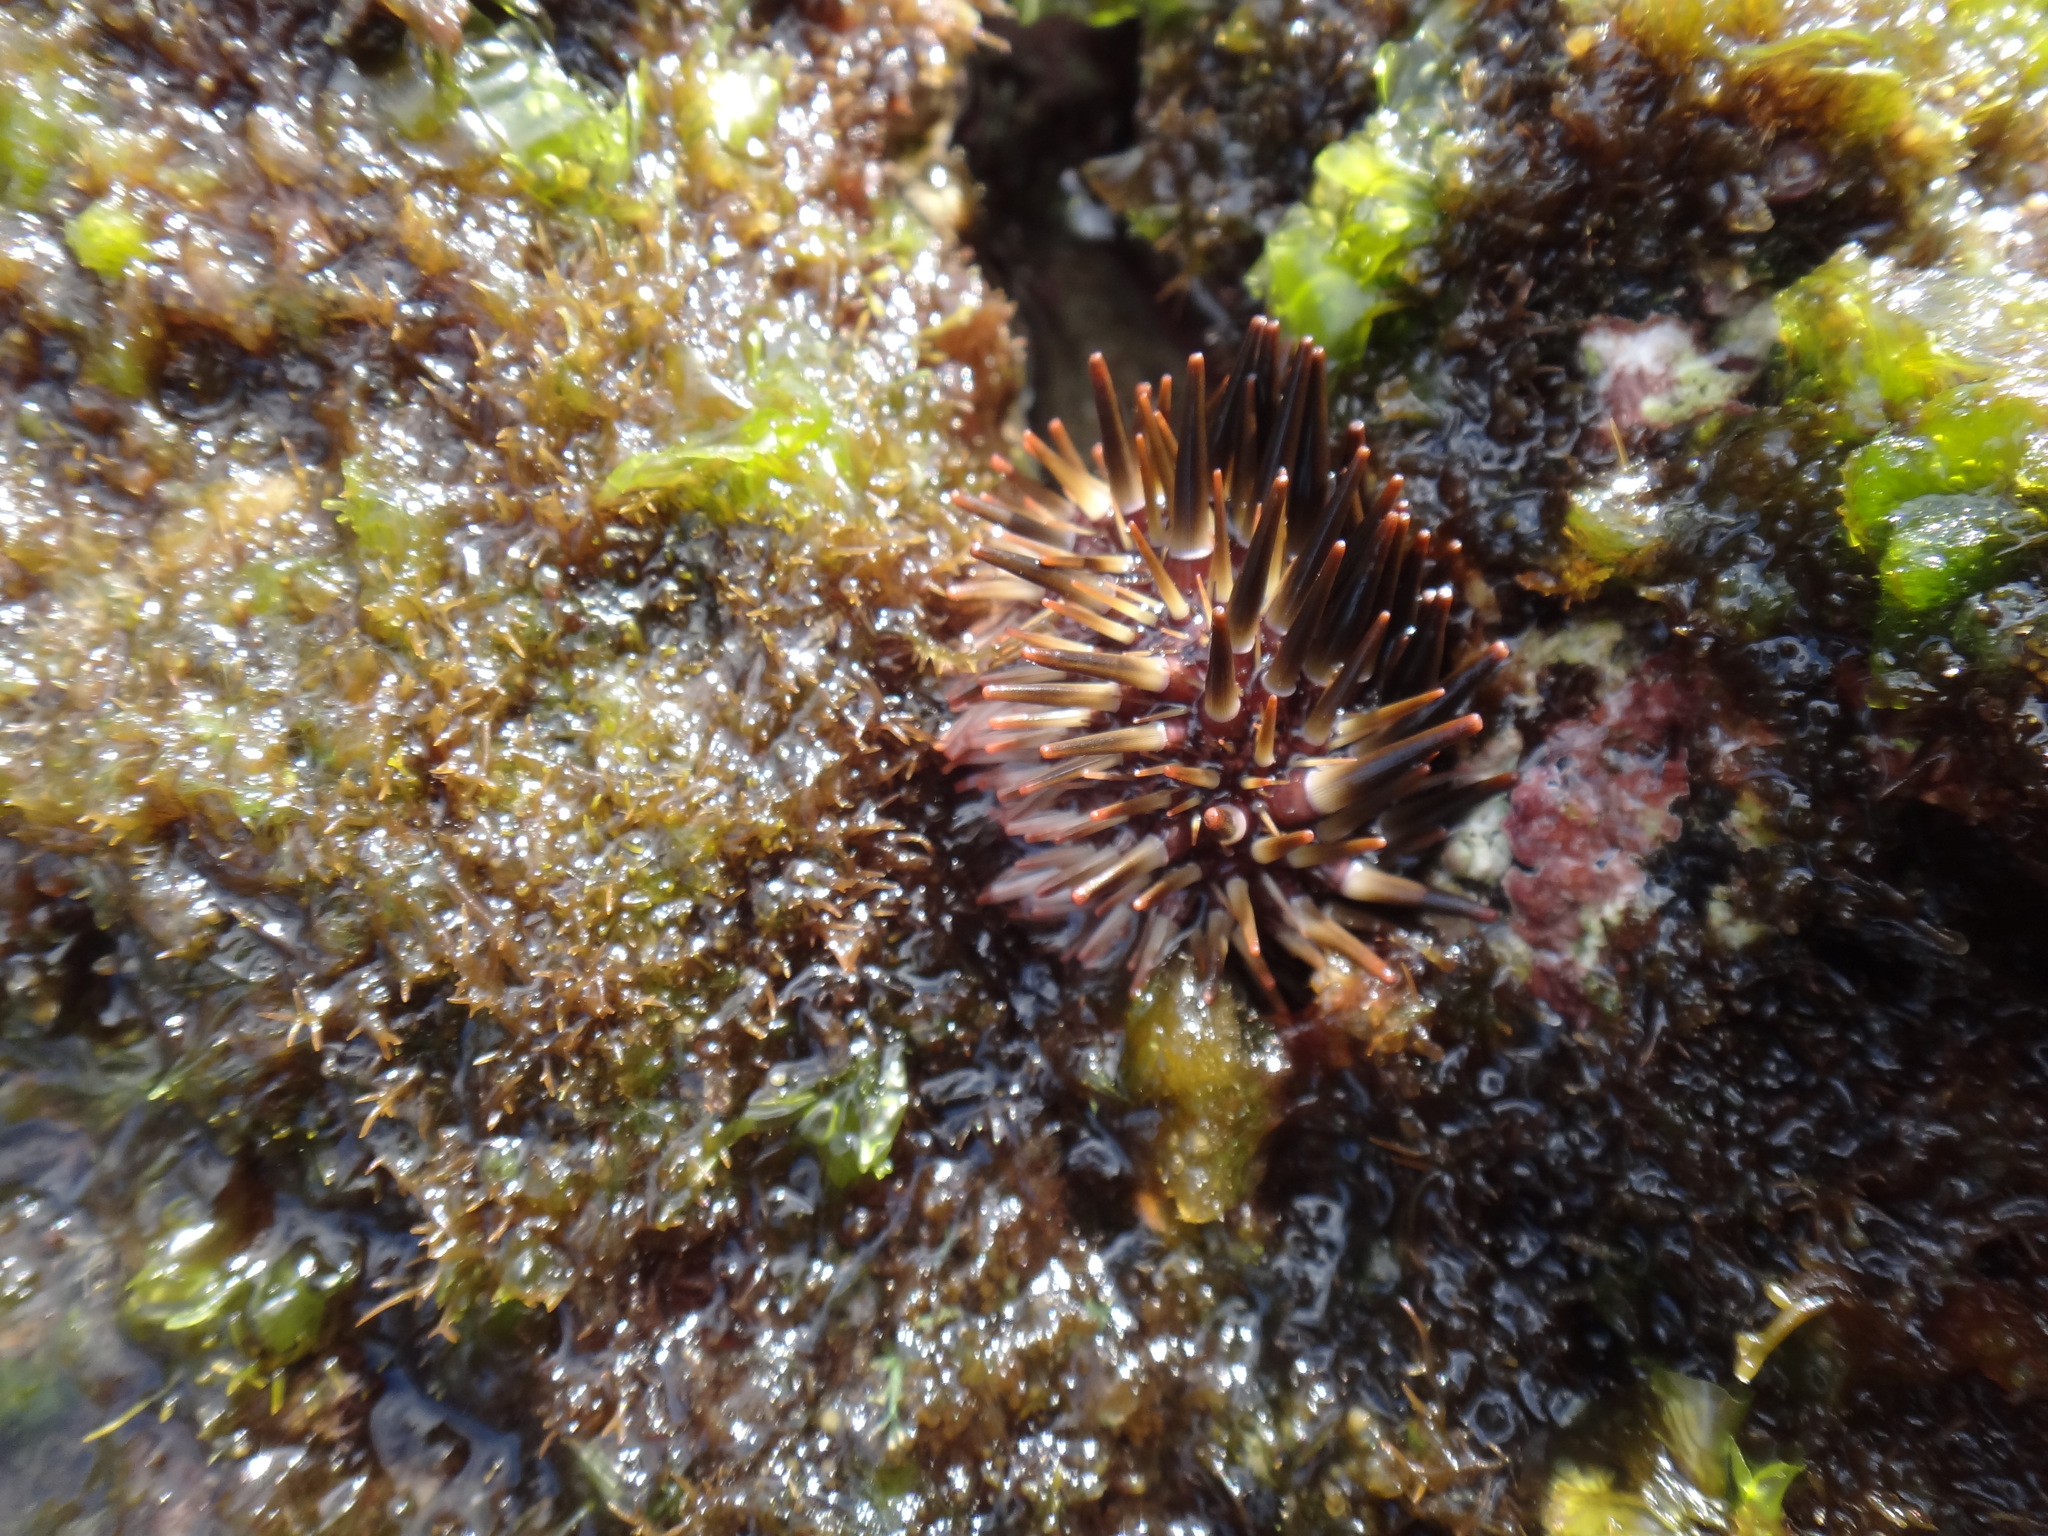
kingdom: Animalia
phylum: Echinodermata
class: Echinoidea
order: Camarodonta
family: Echinometridae
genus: Echinometra
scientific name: Echinometra mathaei
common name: Rock-boring urchin
